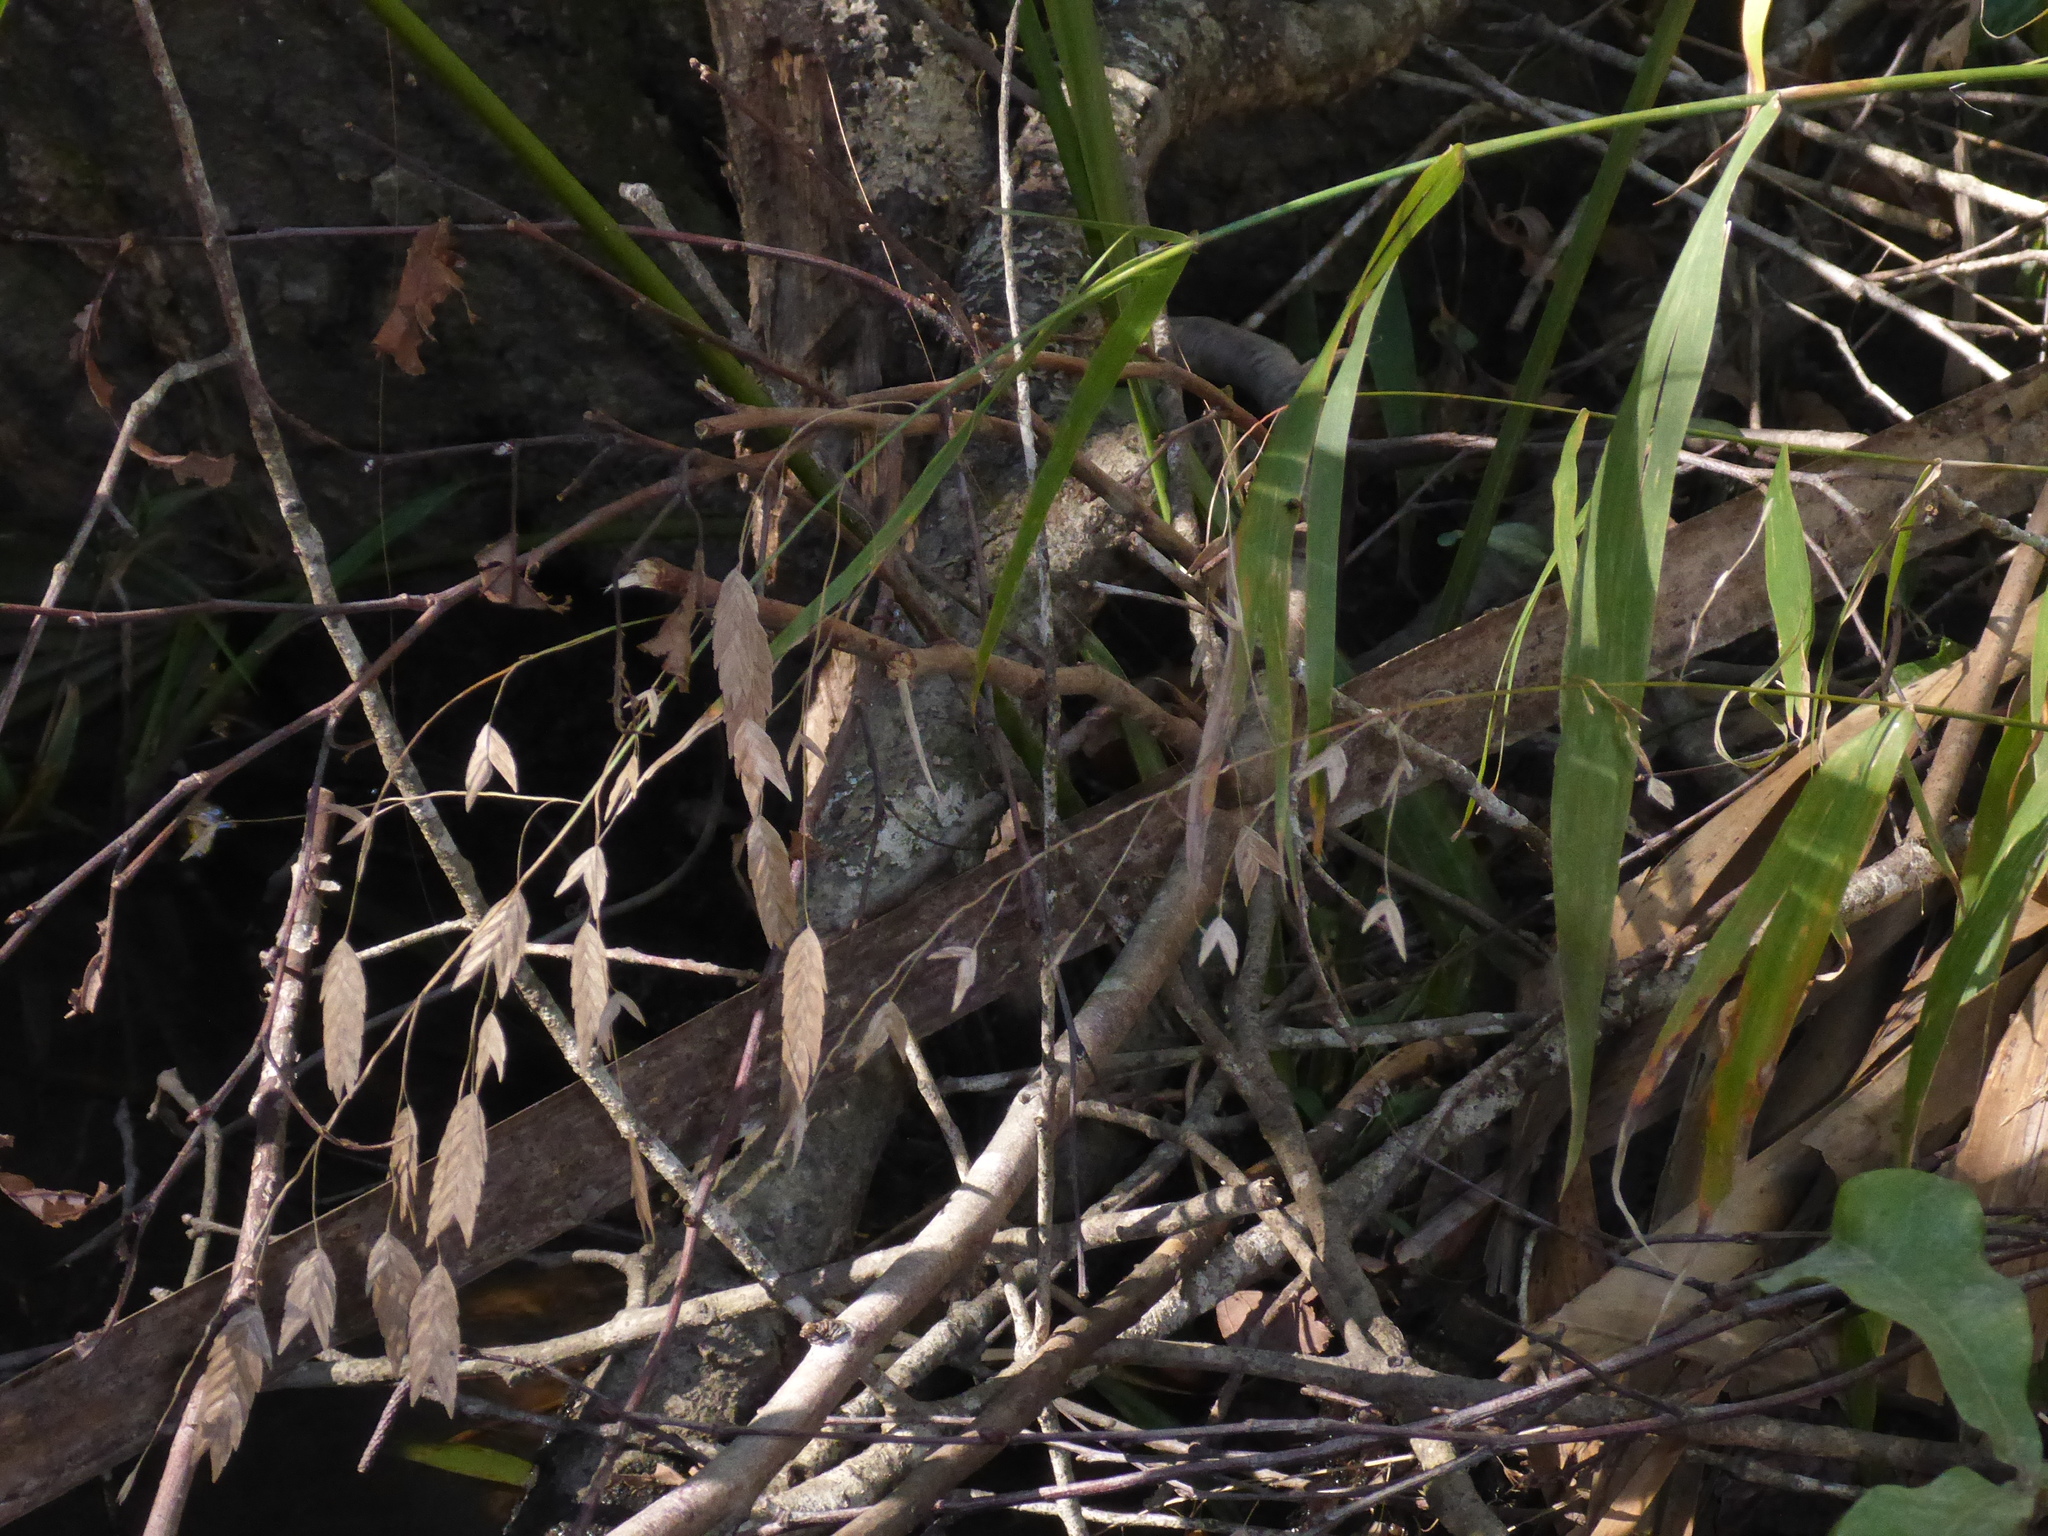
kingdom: Plantae
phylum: Tracheophyta
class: Liliopsida
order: Poales
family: Poaceae
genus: Chasmanthium
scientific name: Chasmanthium latifolium
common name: Broad-leaved chasmanthium
